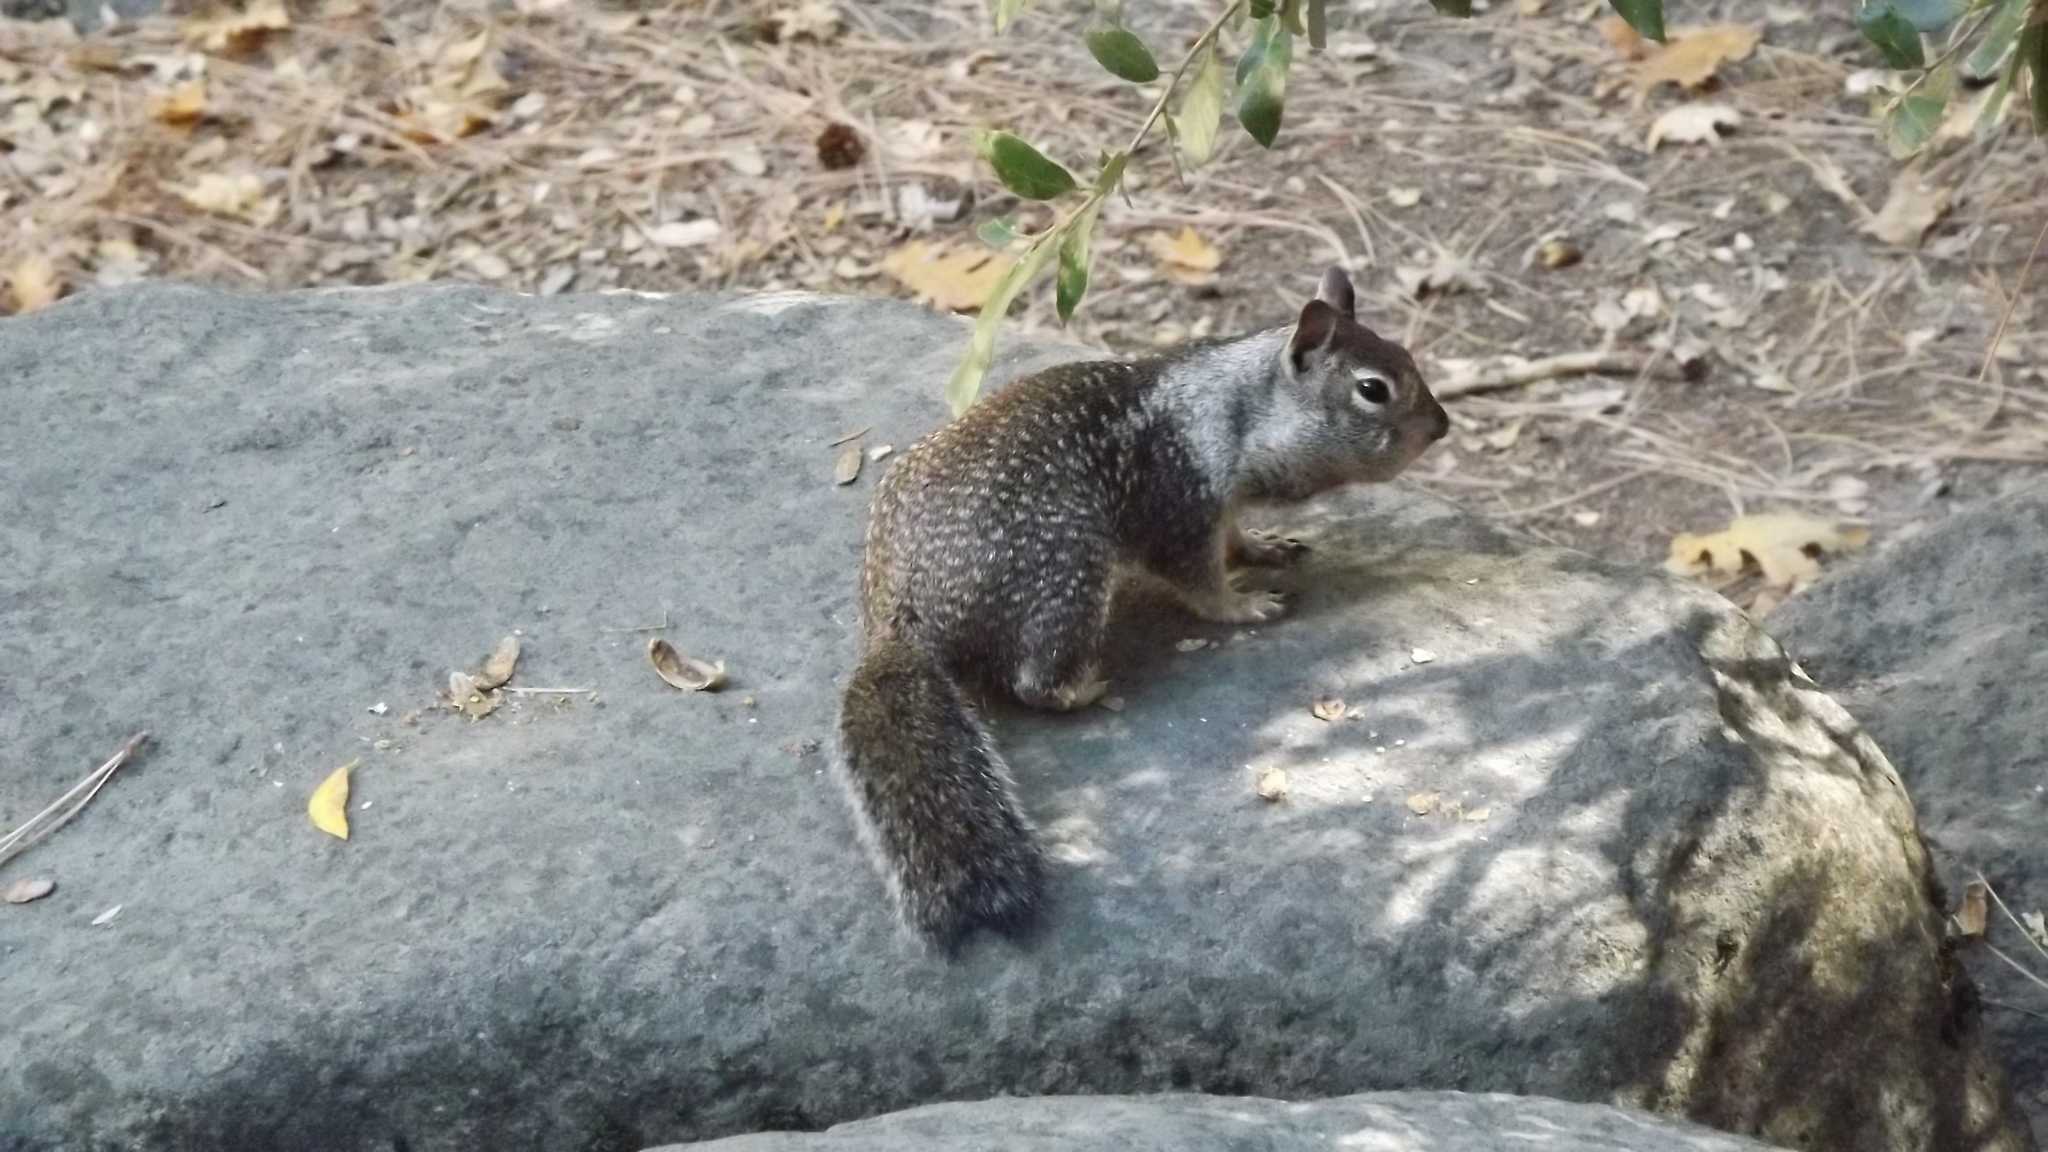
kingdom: Animalia
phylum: Chordata
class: Mammalia
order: Rodentia
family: Sciuridae
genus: Otospermophilus
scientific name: Otospermophilus beecheyi
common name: California ground squirrel
